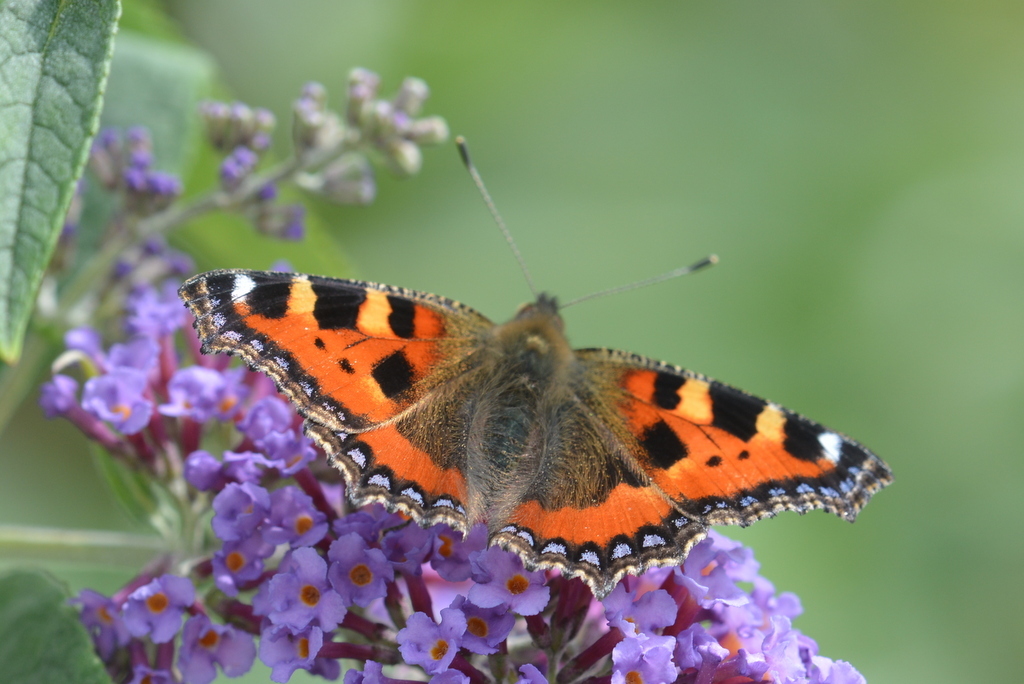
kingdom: Animalia
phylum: Arthropoda
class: Insecta
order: Lepidoptera
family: Nymphalidae
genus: Aglais
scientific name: Aglais urticae
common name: Small tortoiseshell
